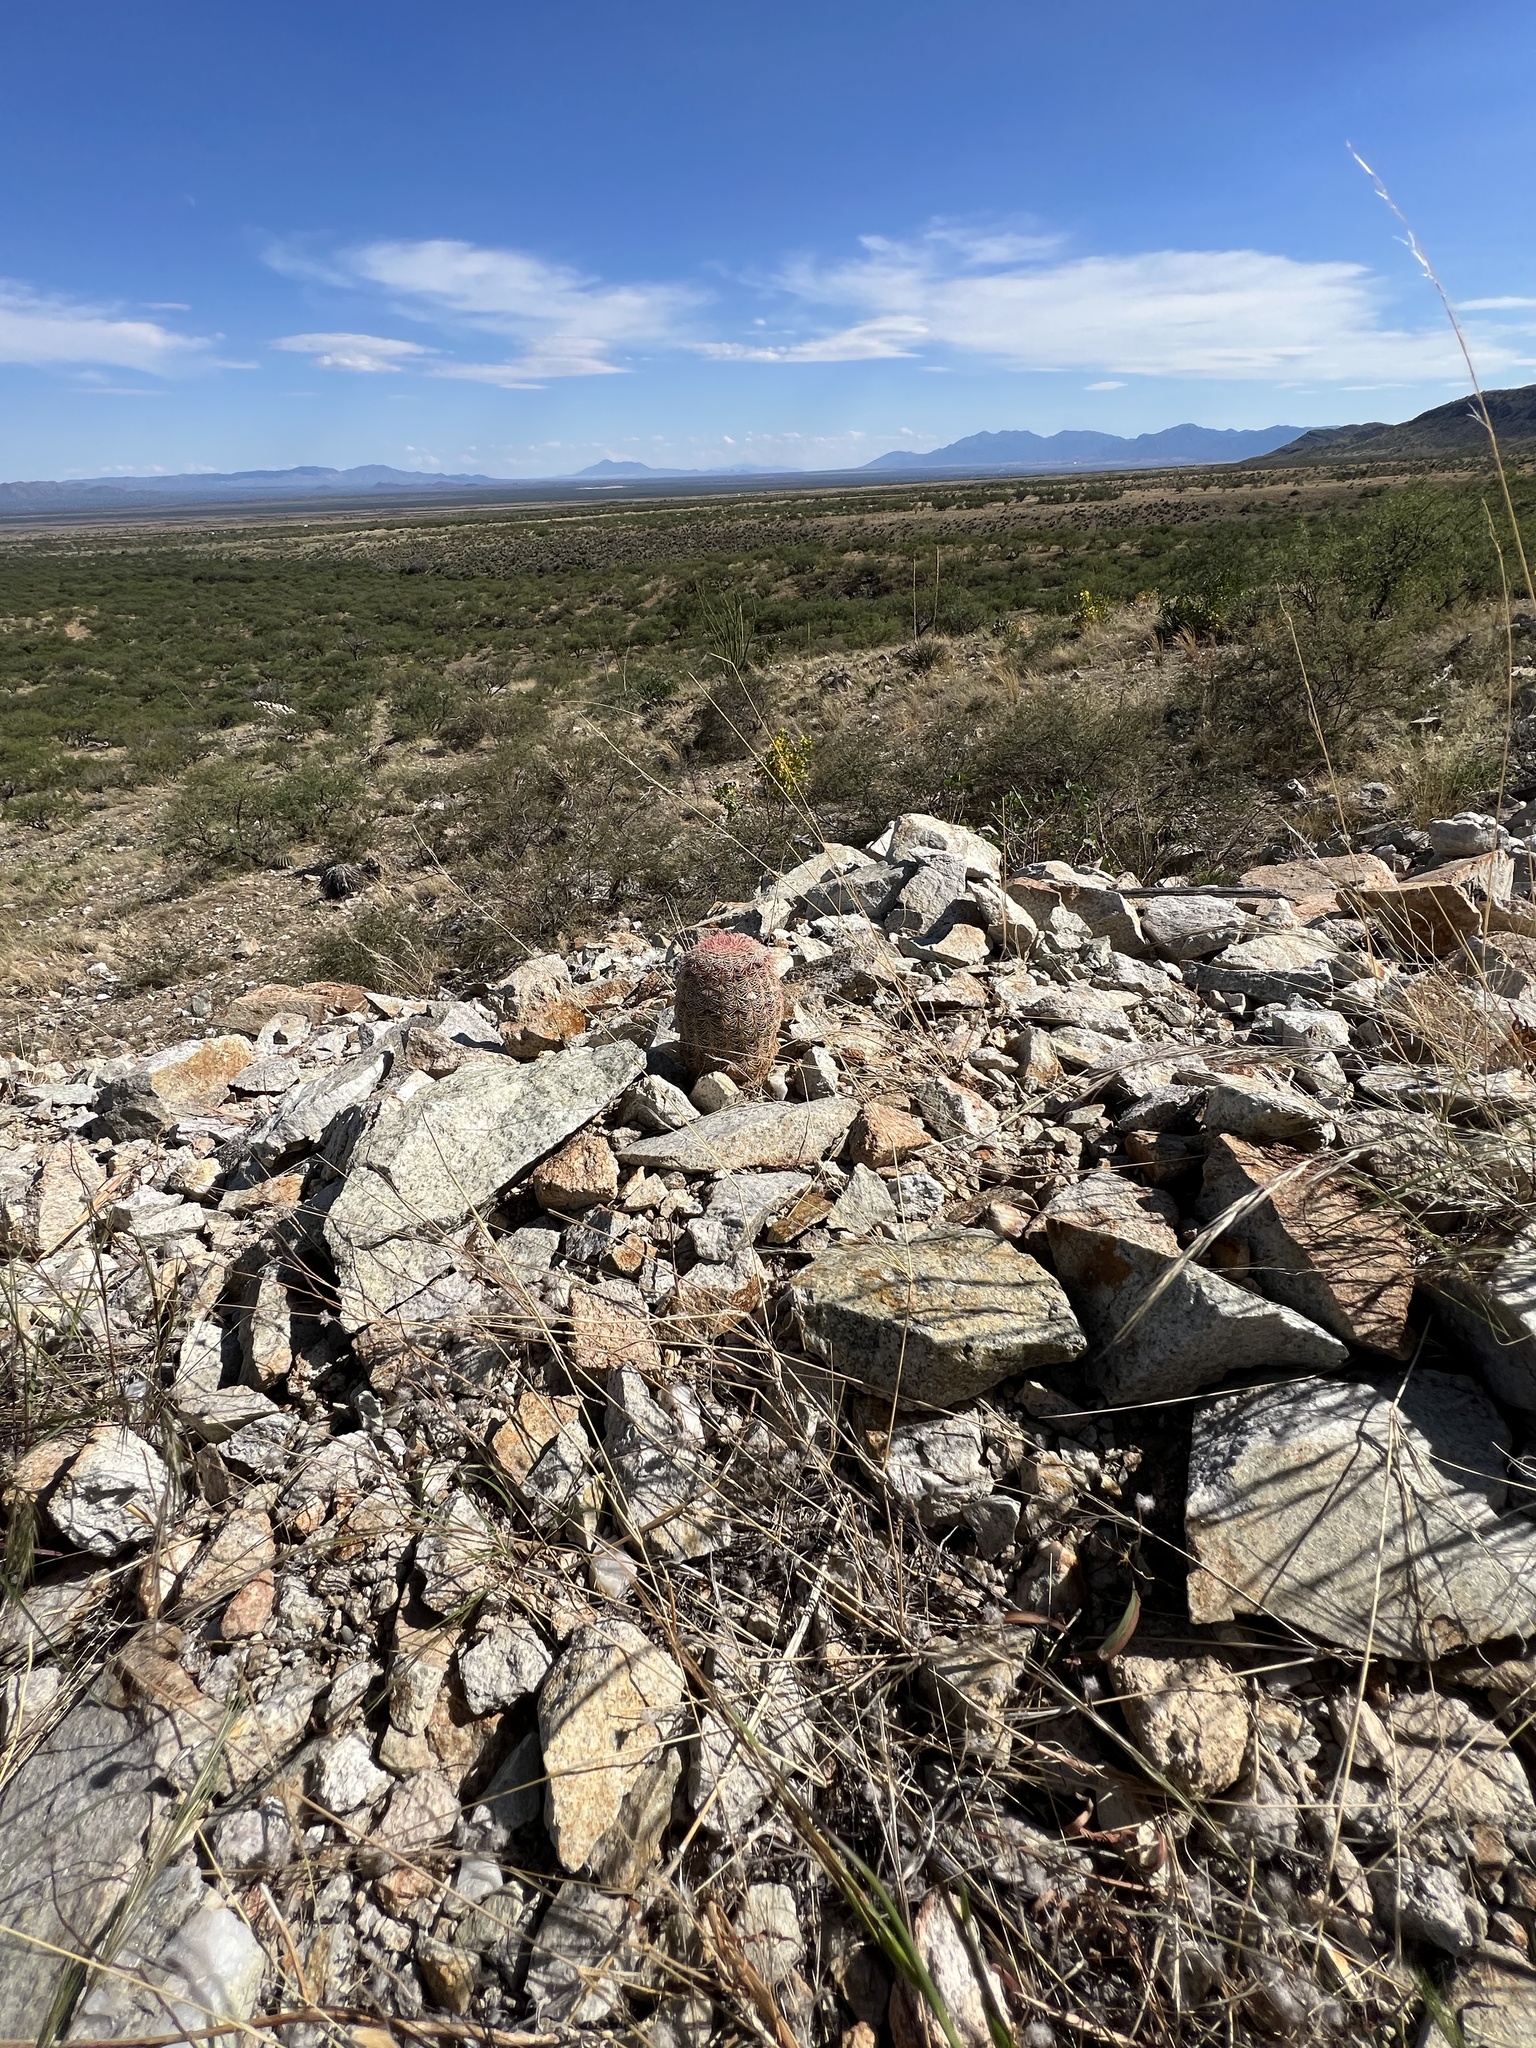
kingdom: Plantae
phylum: Tracheophyta
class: Magnoliopsida
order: Caryophyllales
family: Cactaceae
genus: Echinocereus
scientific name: Echinocereus rigidissimus
